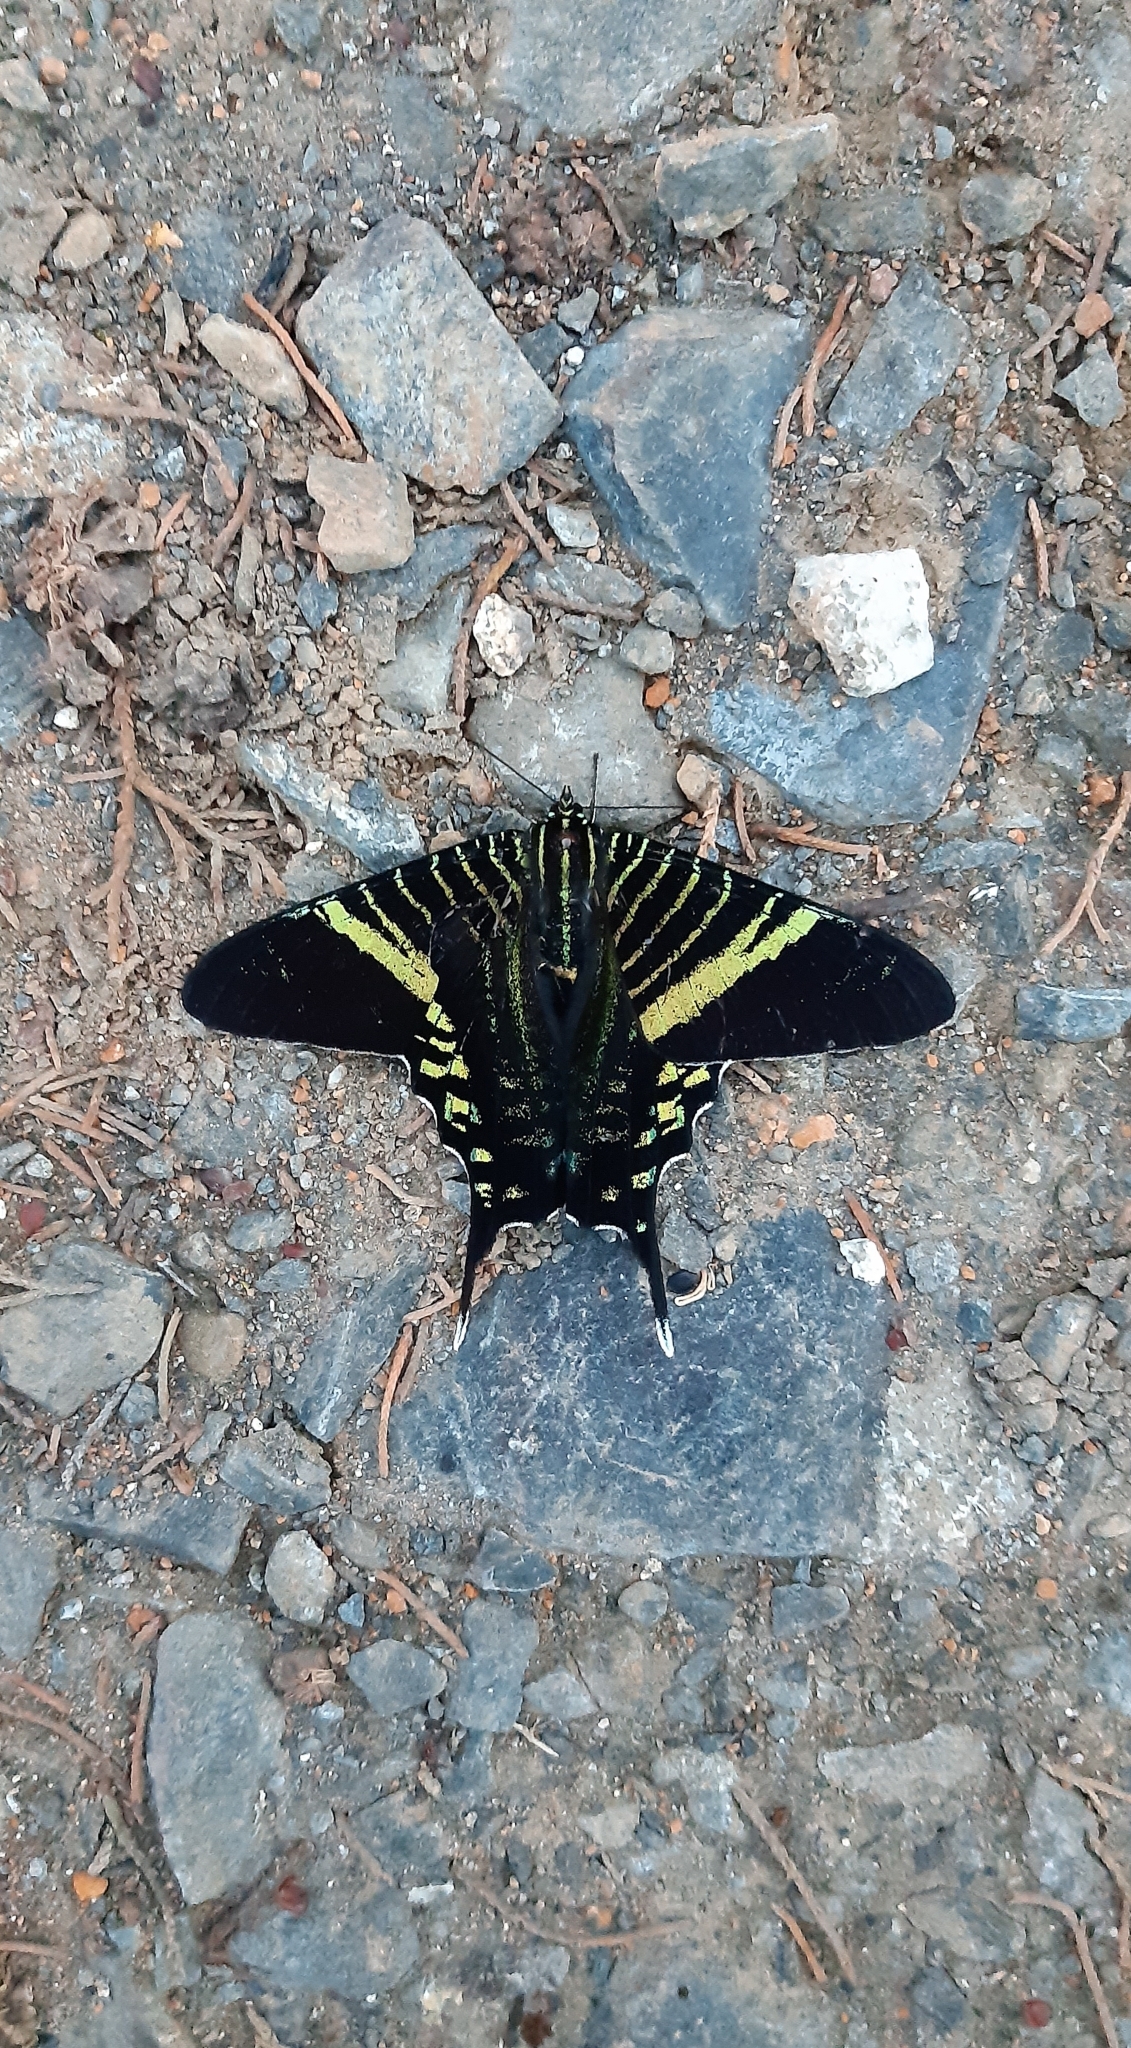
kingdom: Animalia
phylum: Arthropoda
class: Insecta
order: Lepidoptera
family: Uraniidae
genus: Urania
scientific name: Urania fulgens
